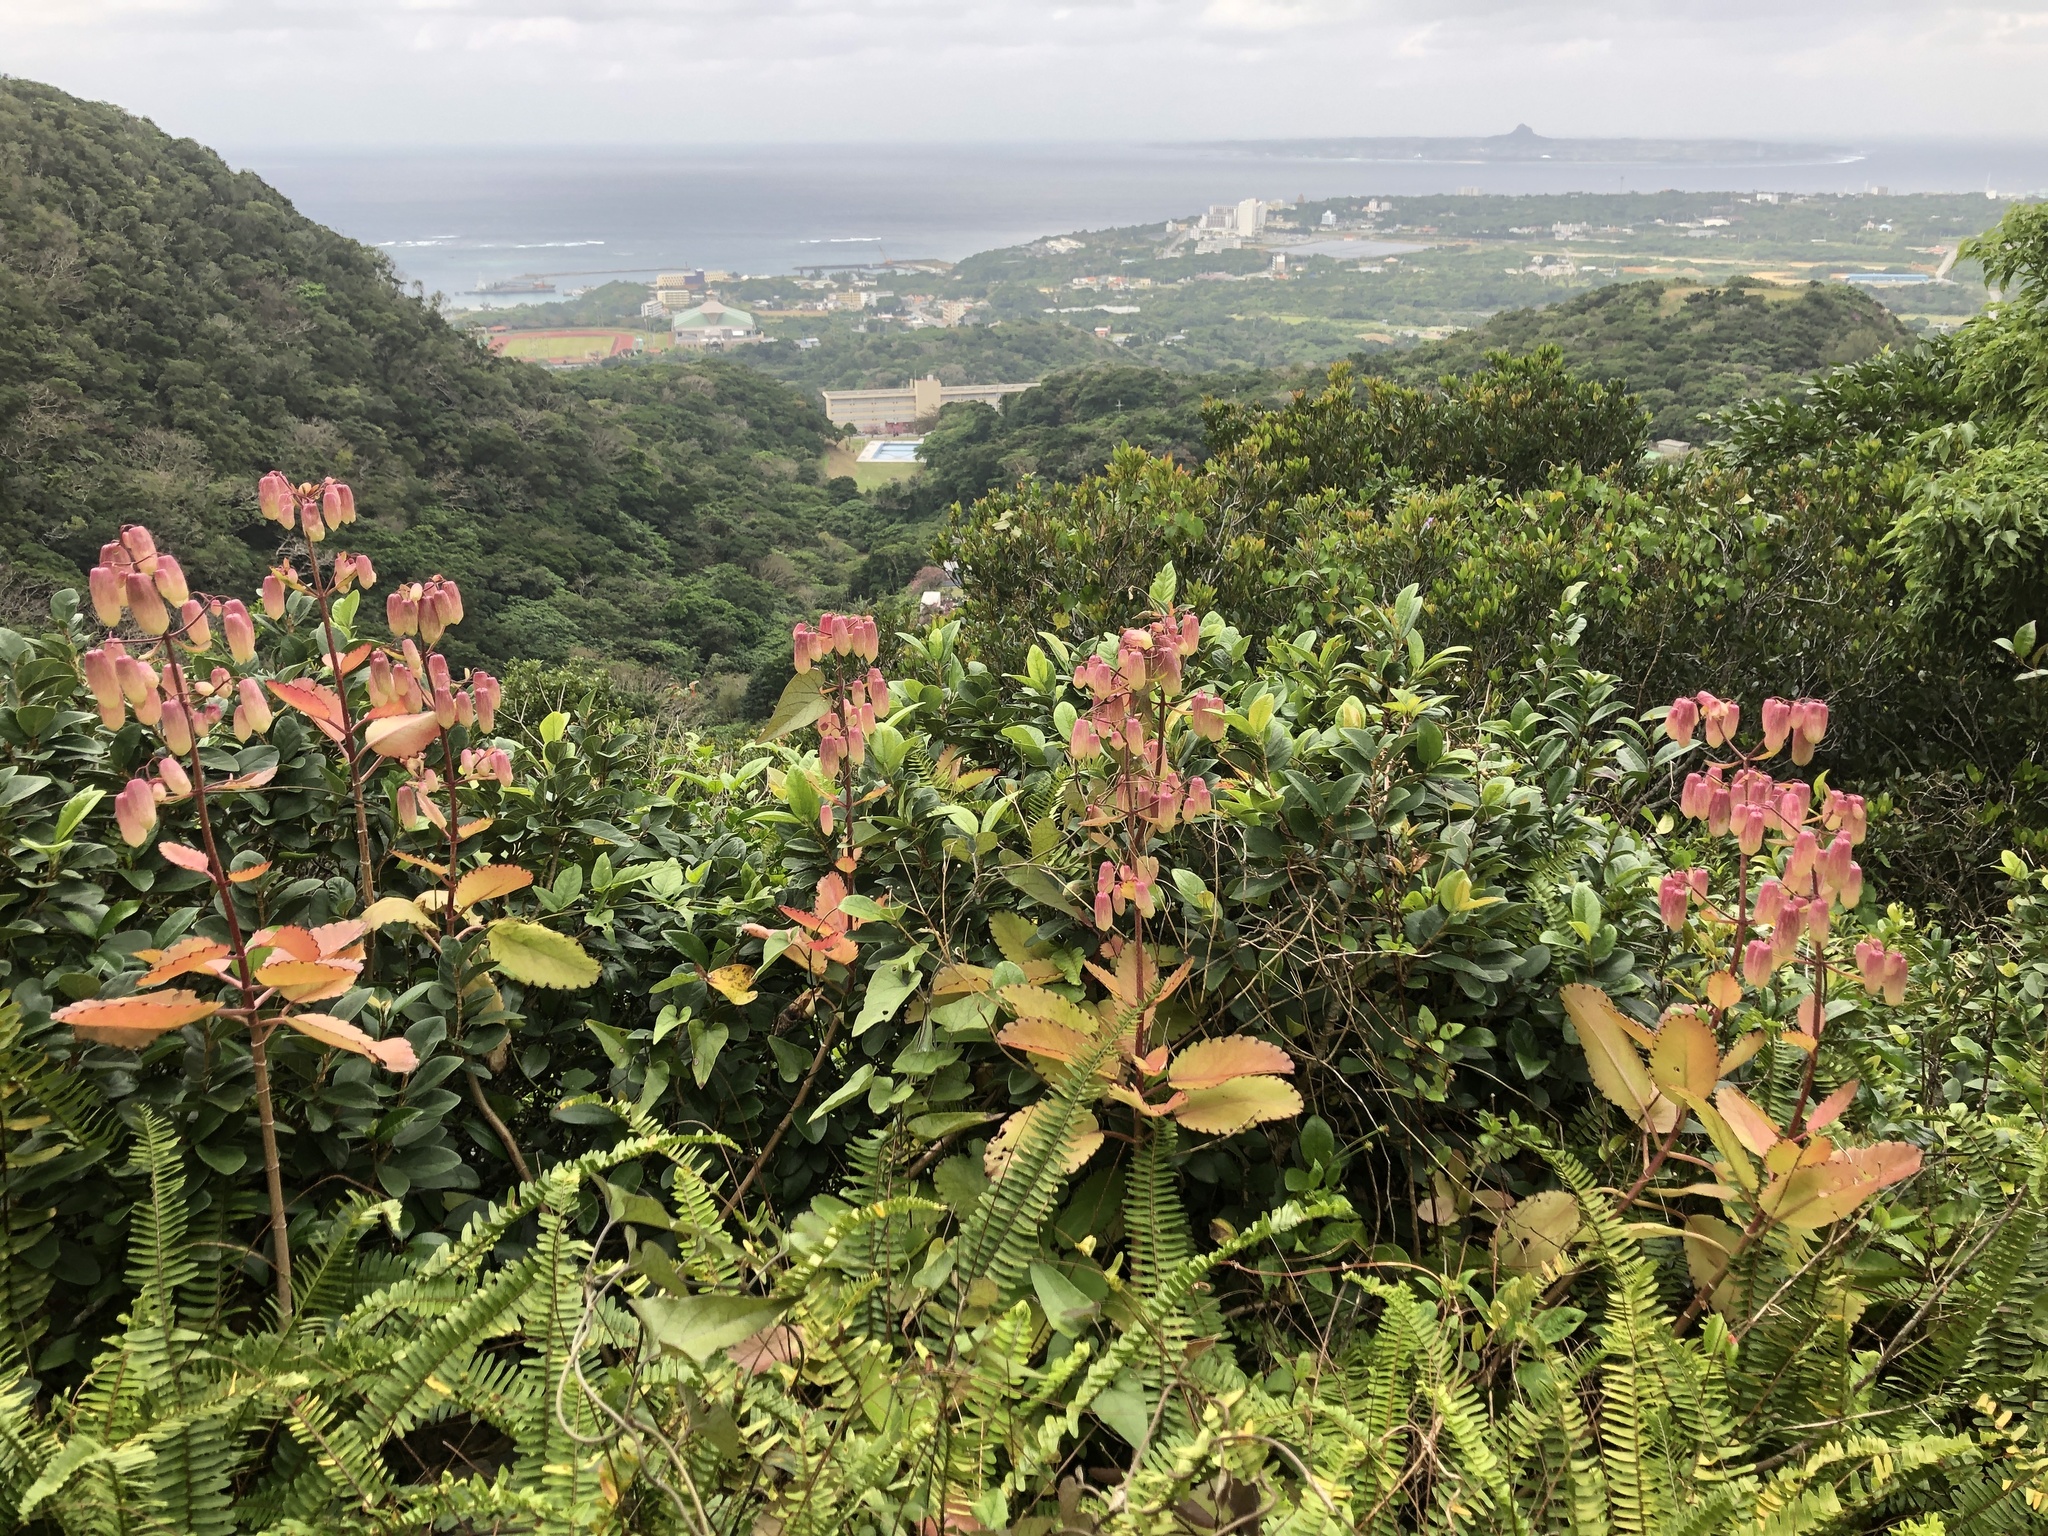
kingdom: Plantae
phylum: Tracheophyta
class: Magnoliopsida
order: Saxifragales
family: Crassulaceae
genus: Kalanchoe
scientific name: Kalanchoe pinnata
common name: Cathedral bells
